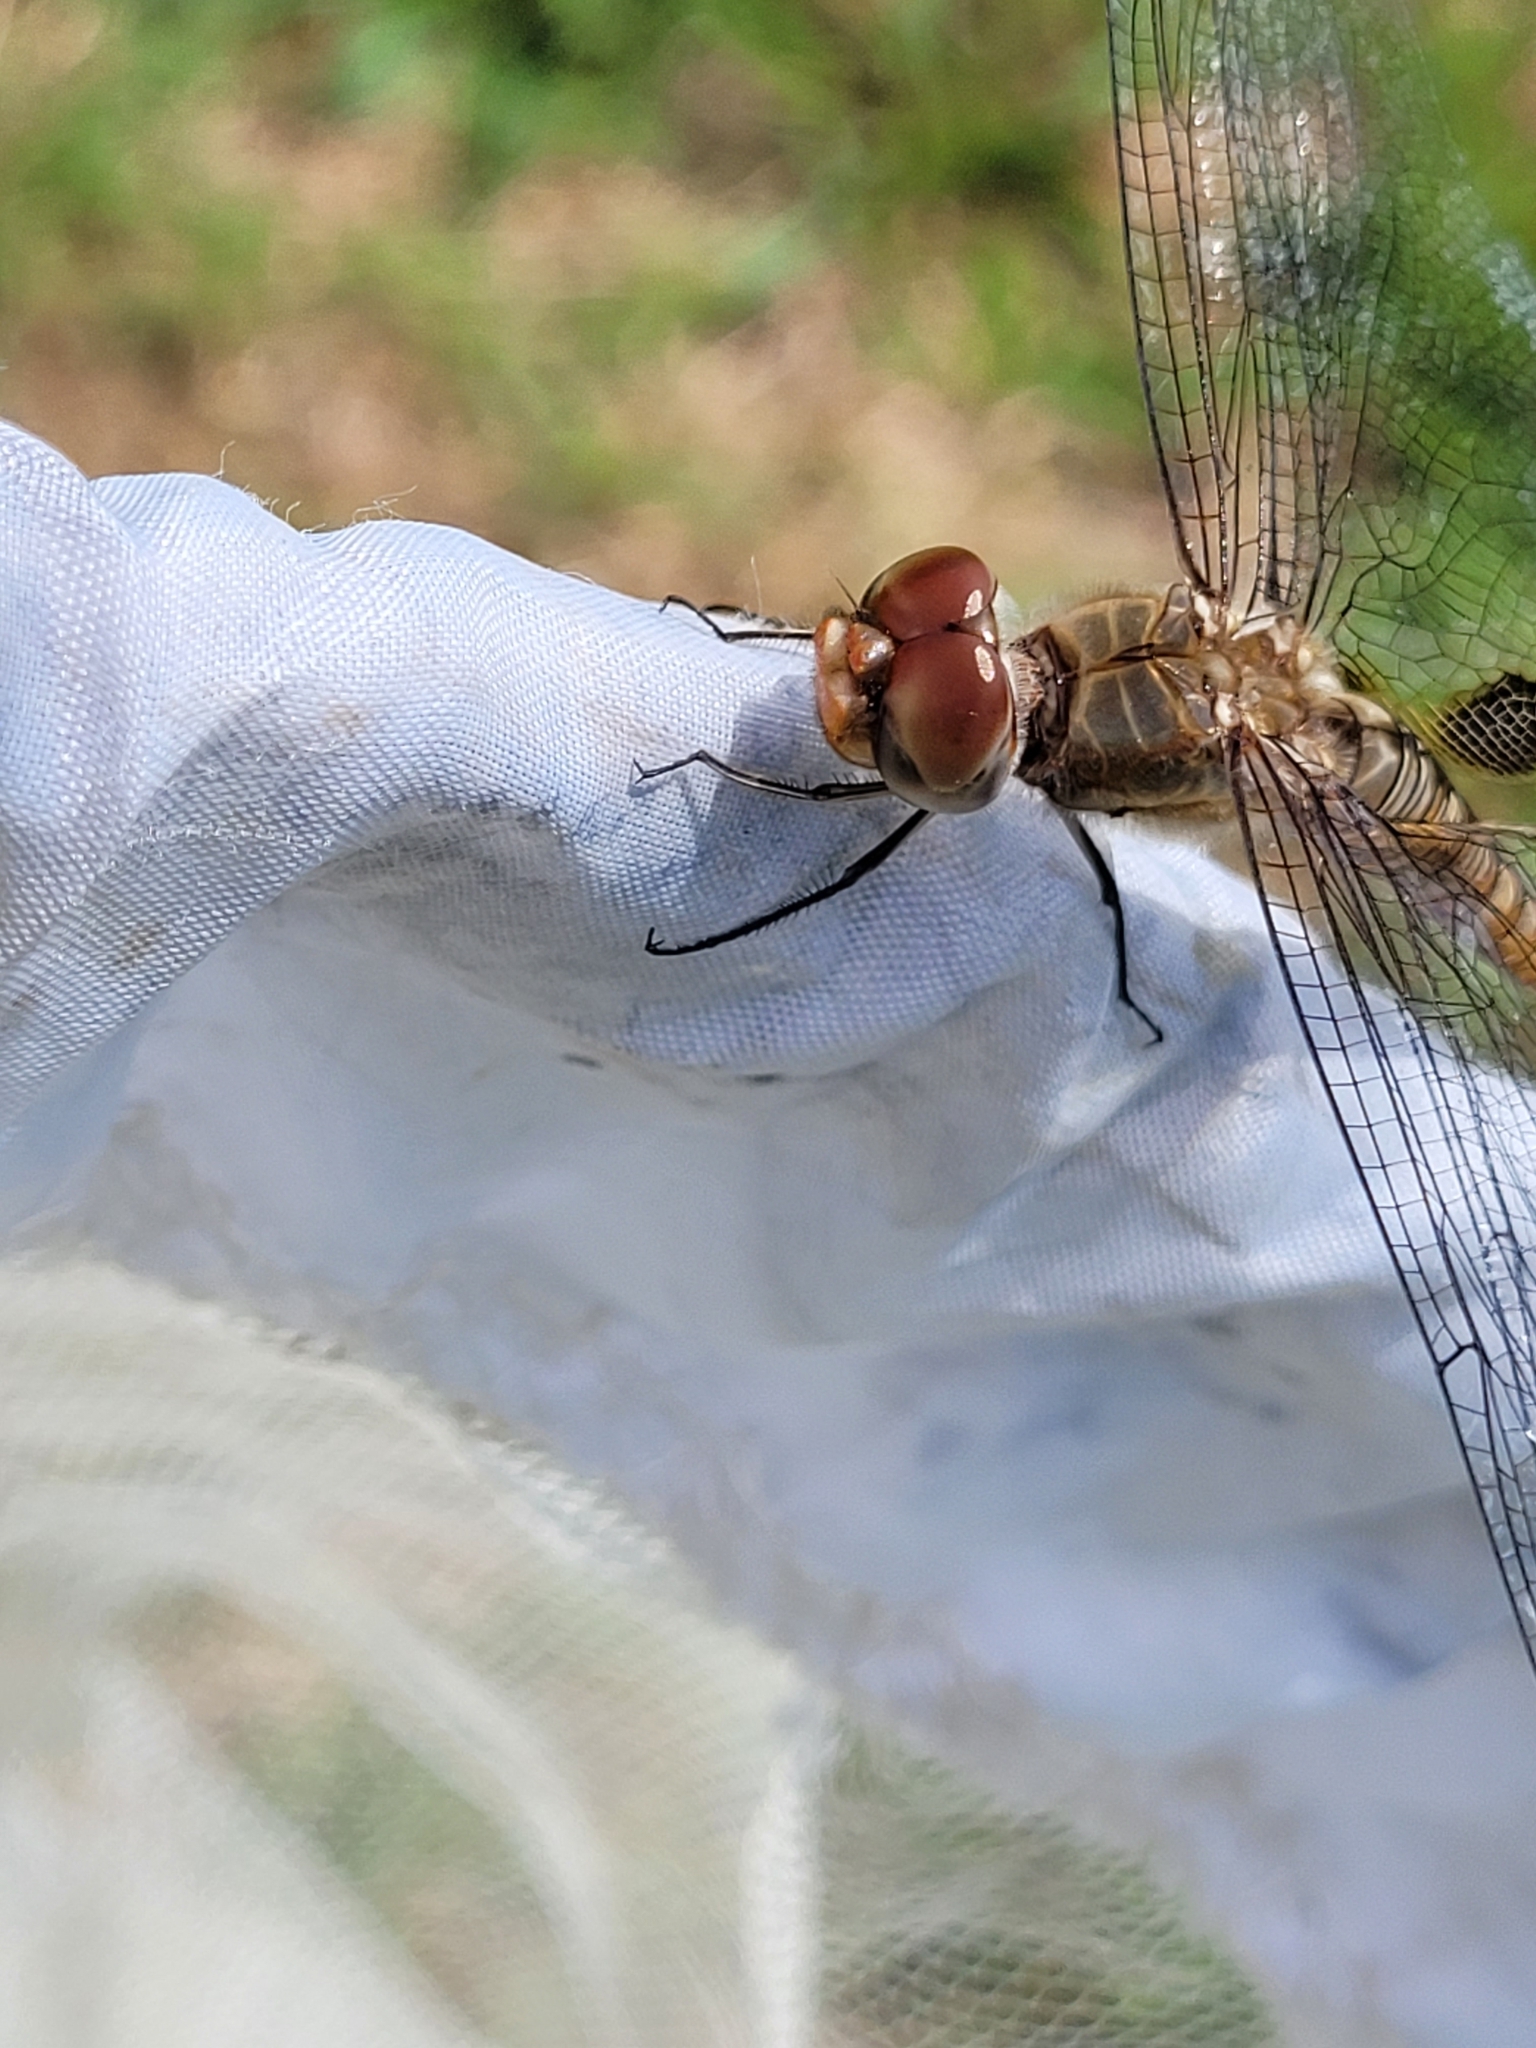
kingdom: Animalia
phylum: Arthropoda
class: Insecta
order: Odonata
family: Libellulidae
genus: Pantala
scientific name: Pantala hymenaea
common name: Spot-winged glider
